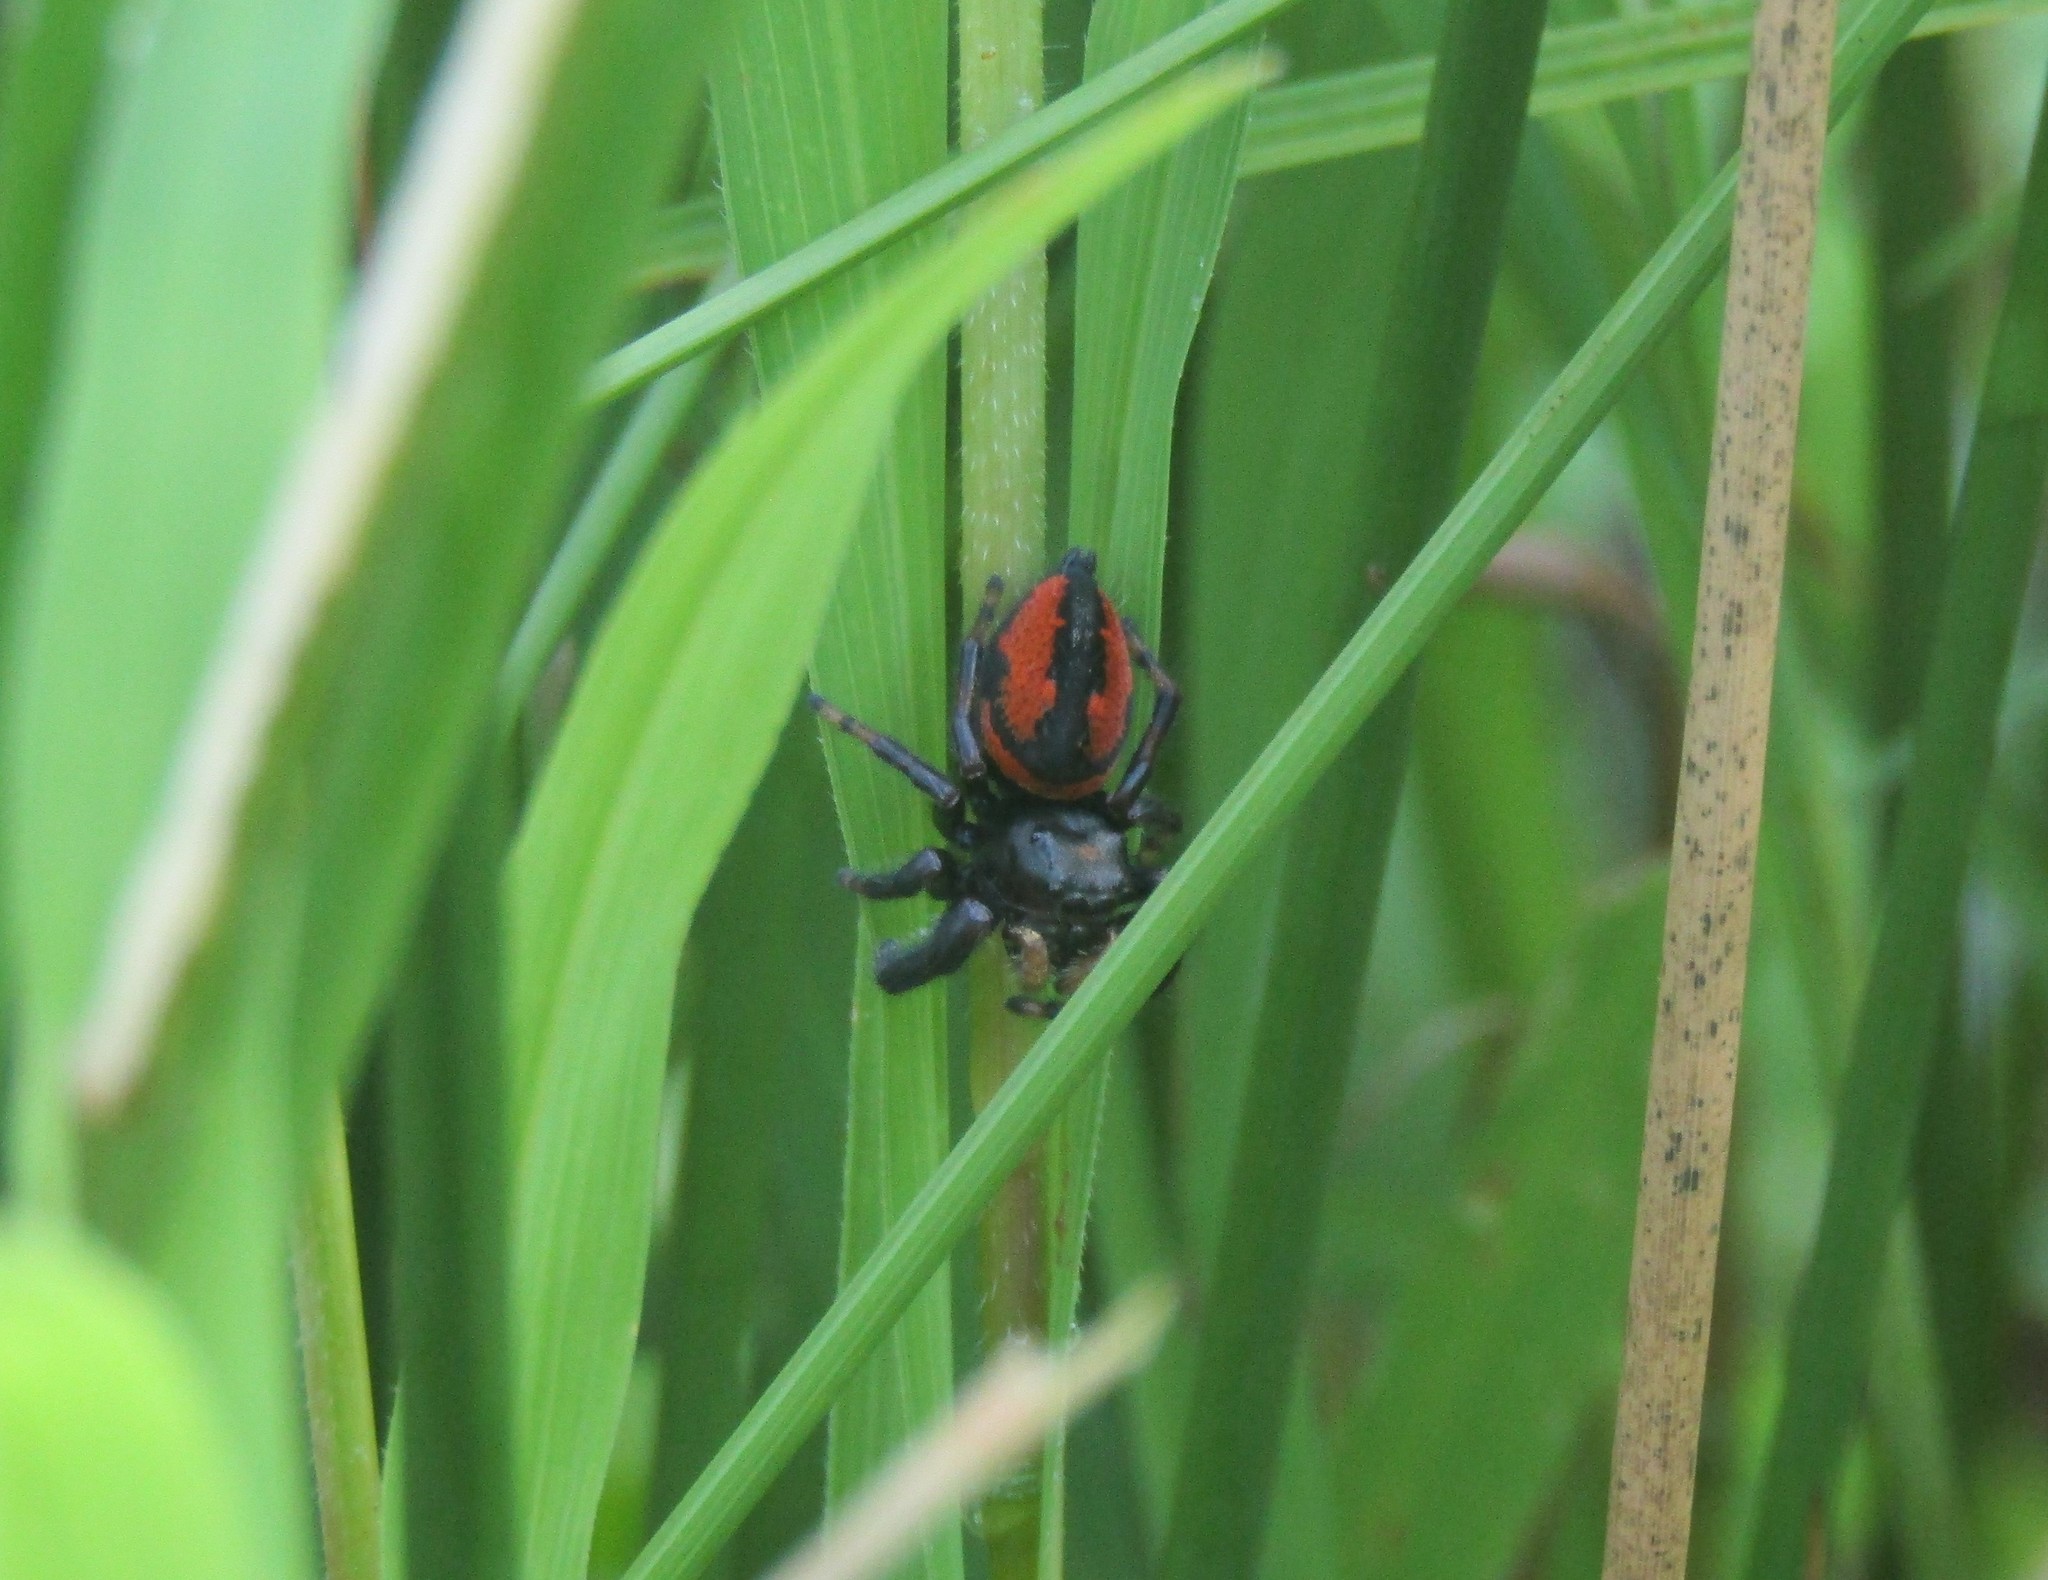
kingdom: Animalia
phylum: Arthropoda
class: Arachnida
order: Araneae
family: Salticidae
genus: Phidippus
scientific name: Phidippus clarus
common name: Brilliant jumping spider
